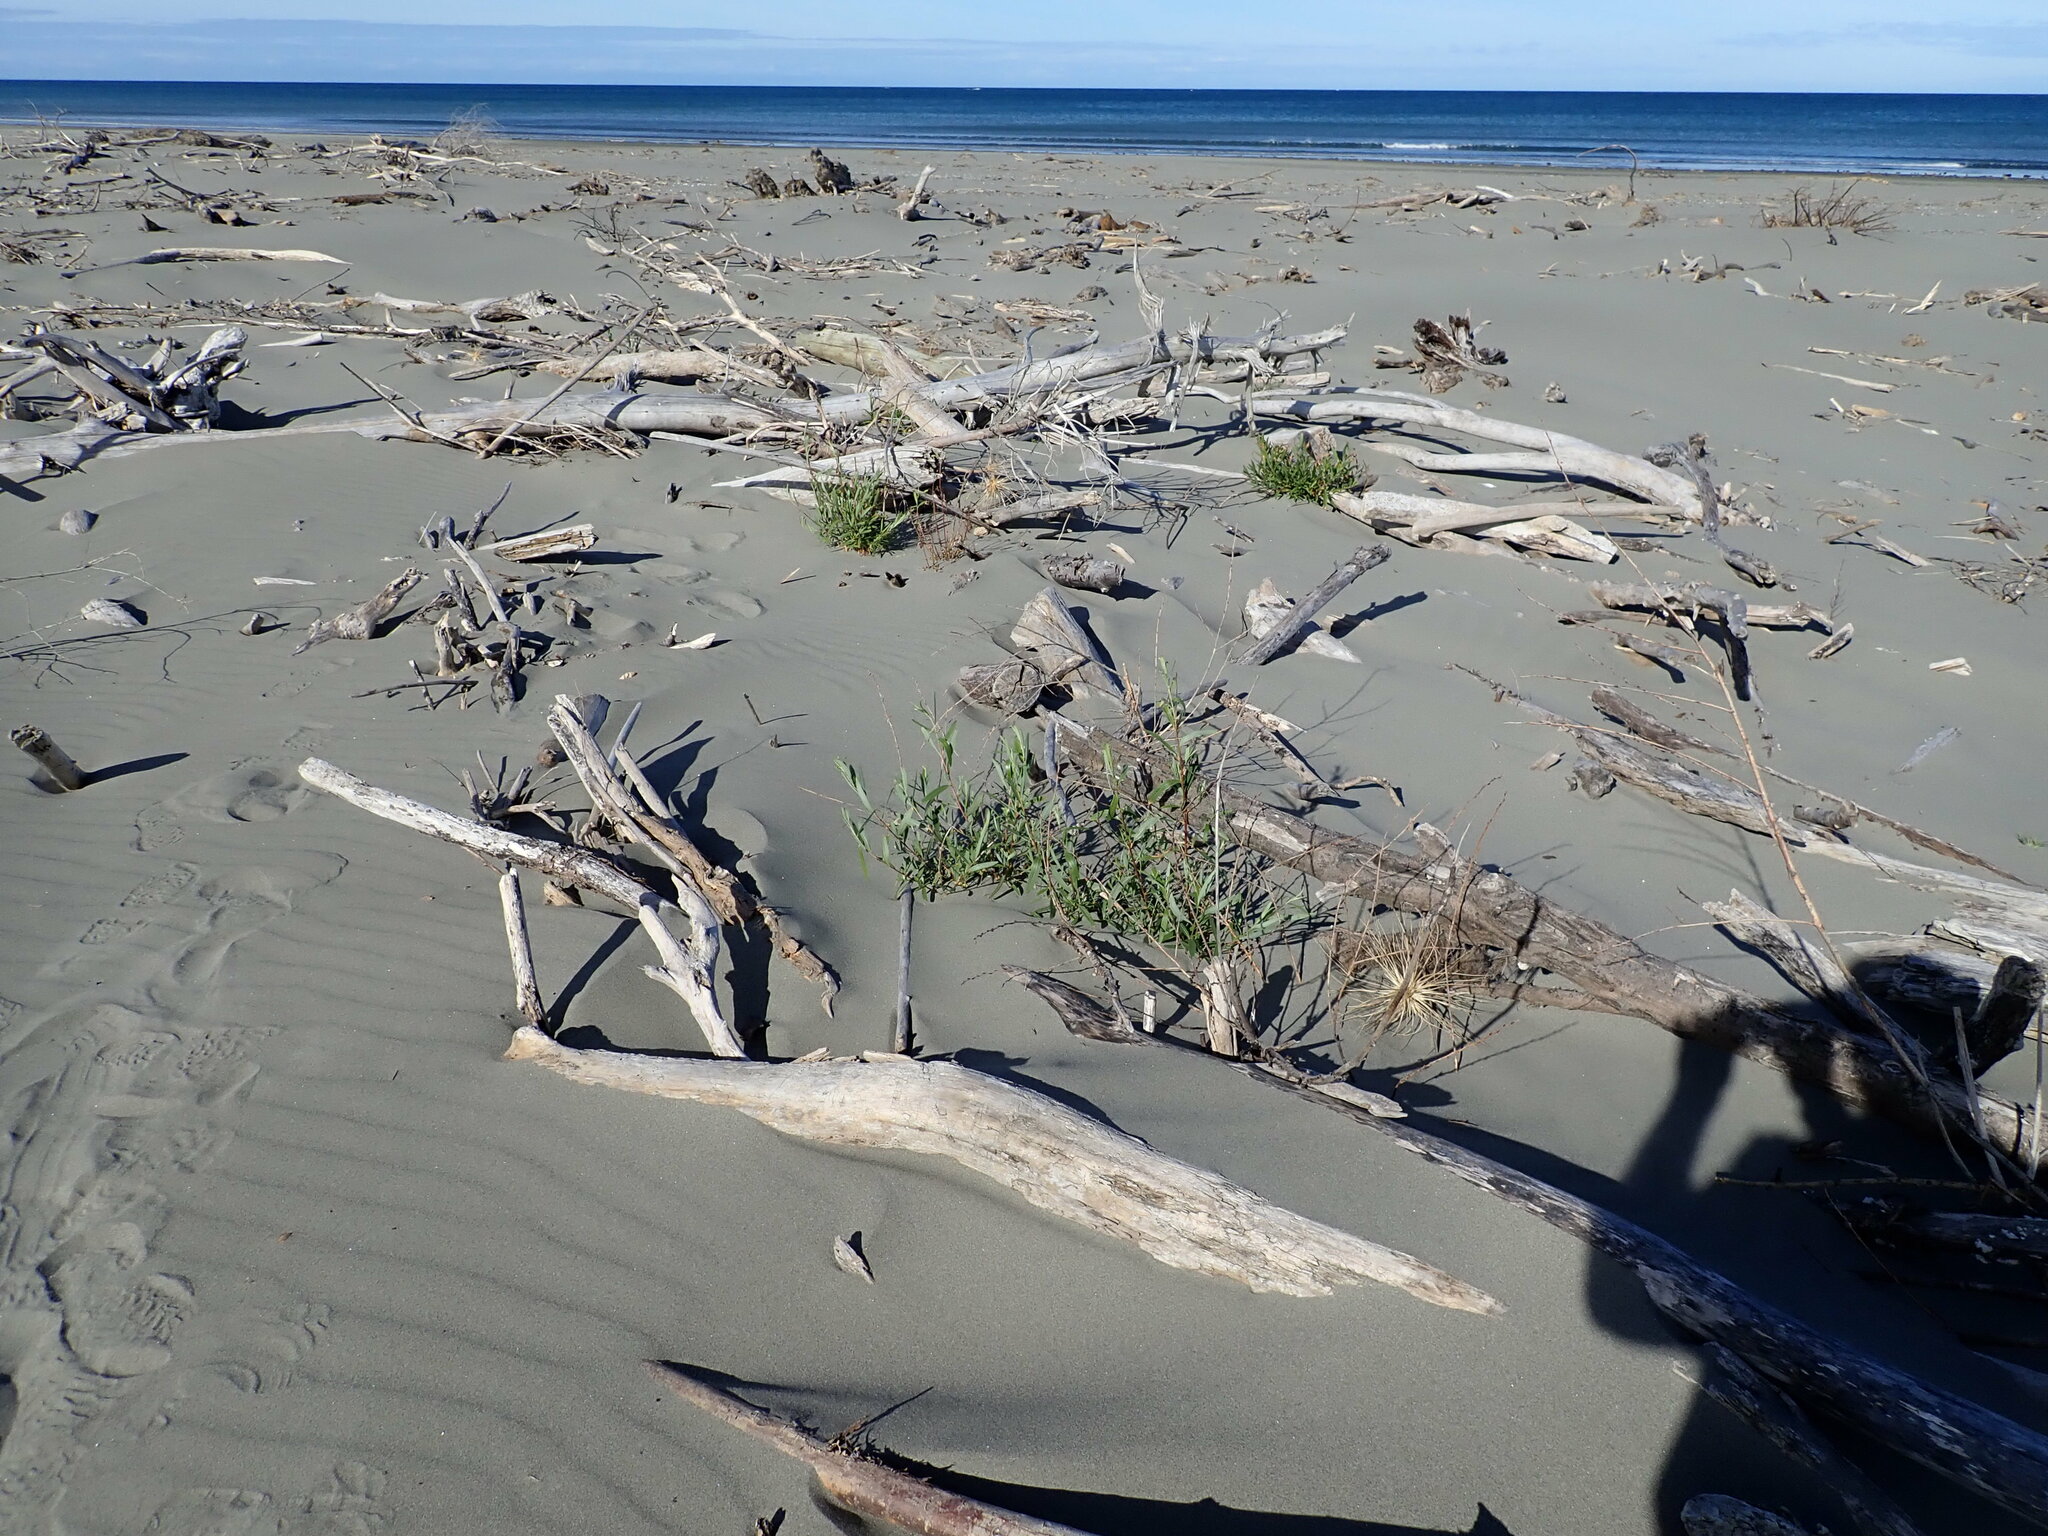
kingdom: Plantae
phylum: Tracheophyta
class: Magnoliopsida
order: Malpighiales
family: Salicaceae
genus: Salix
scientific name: Salix alba
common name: White willow
